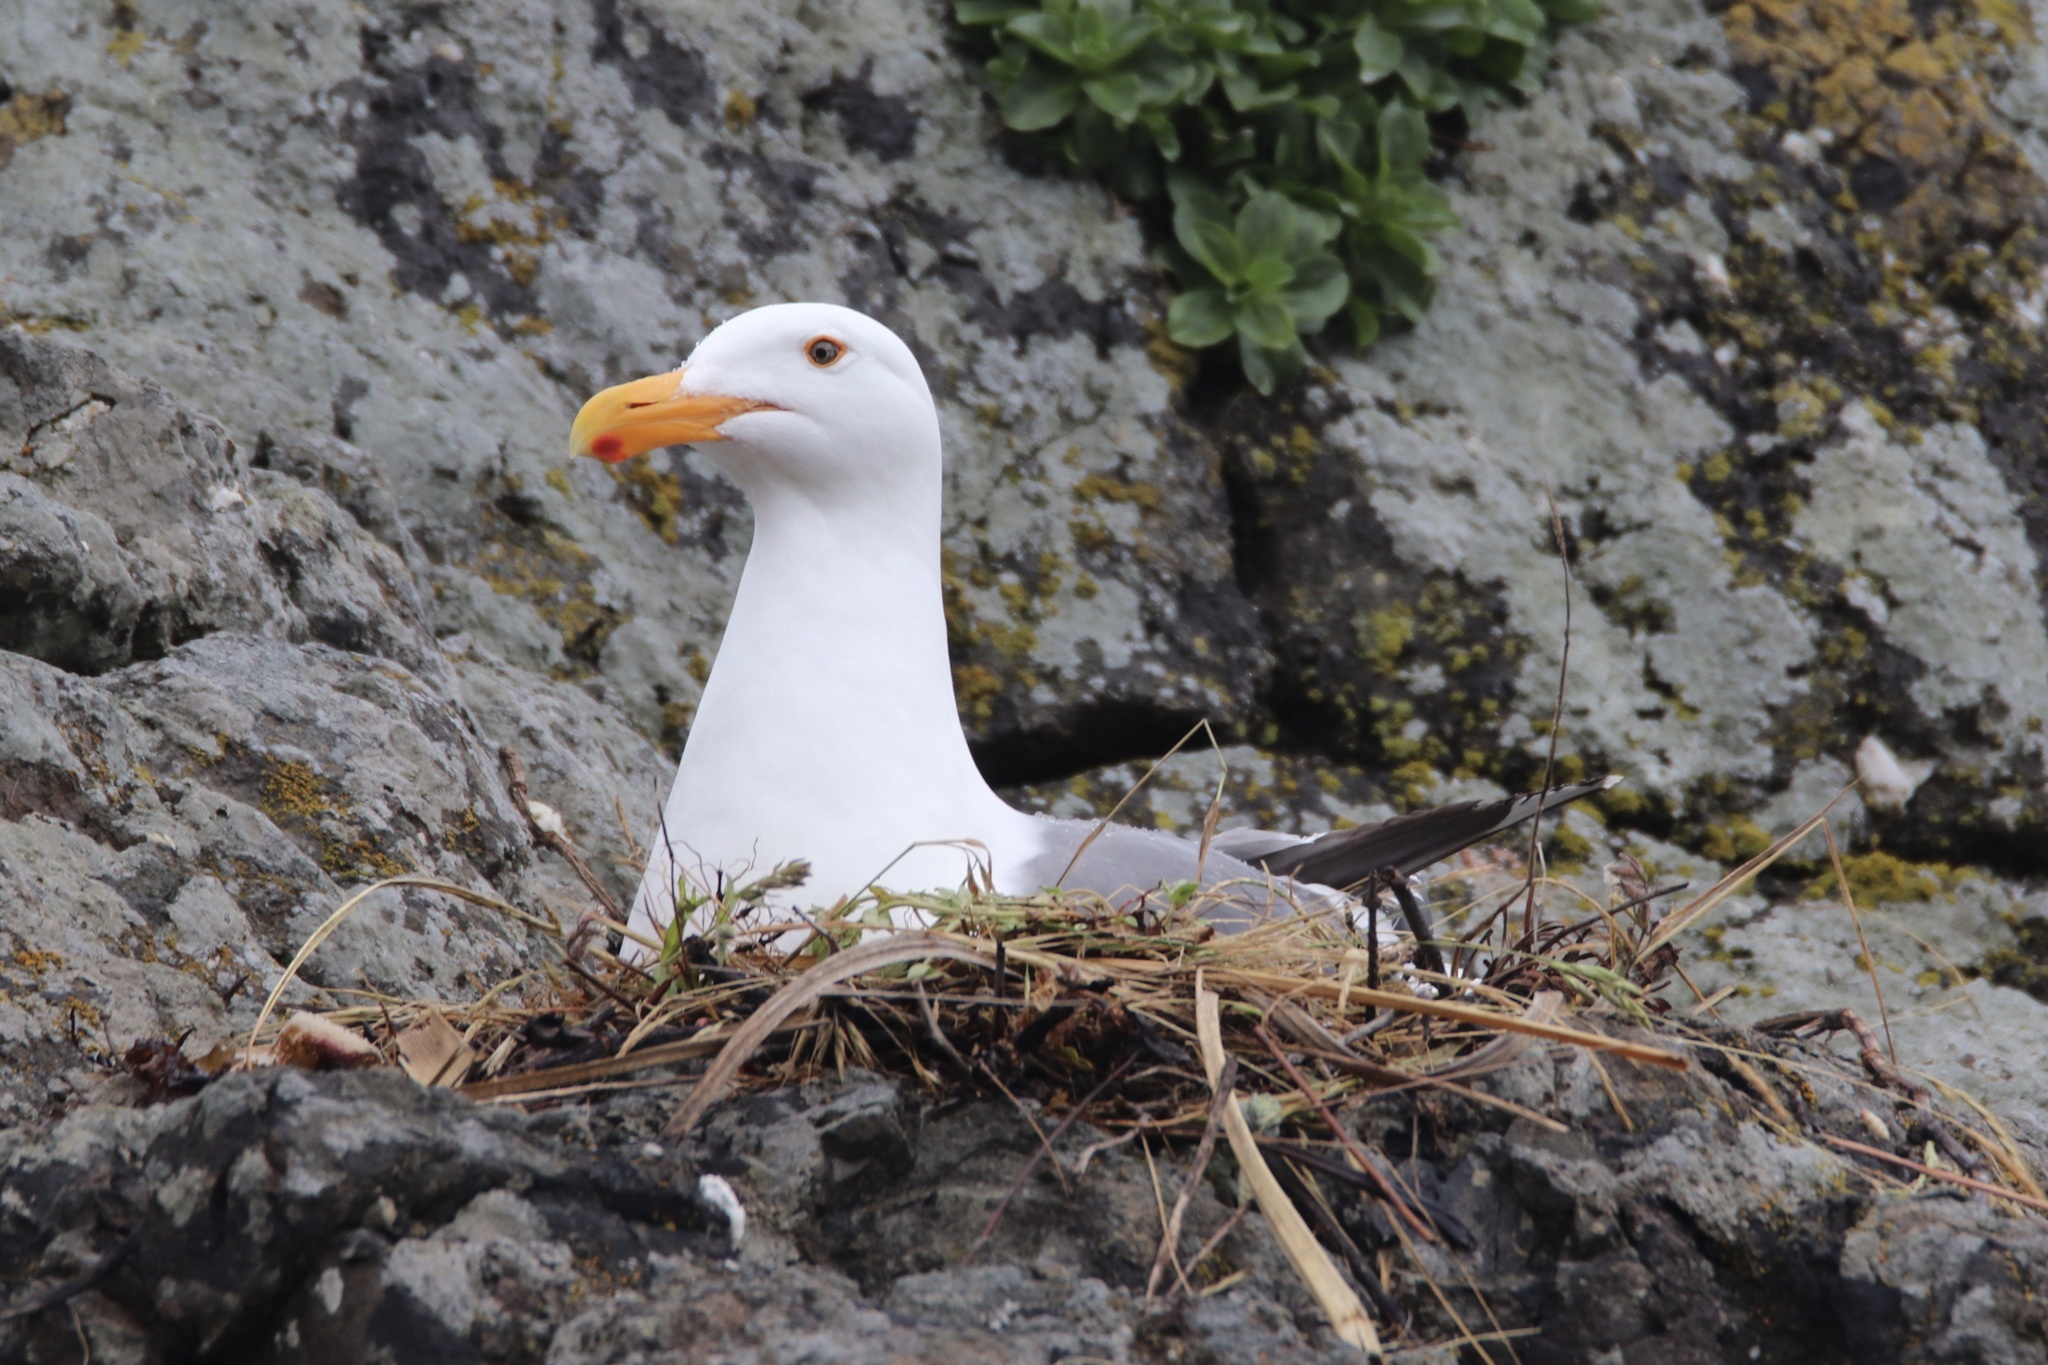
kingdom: Animalia
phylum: Chordata
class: Aves
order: Charadriiformes
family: Laridae
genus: Larus
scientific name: Larus occidentalis
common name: Western gull
